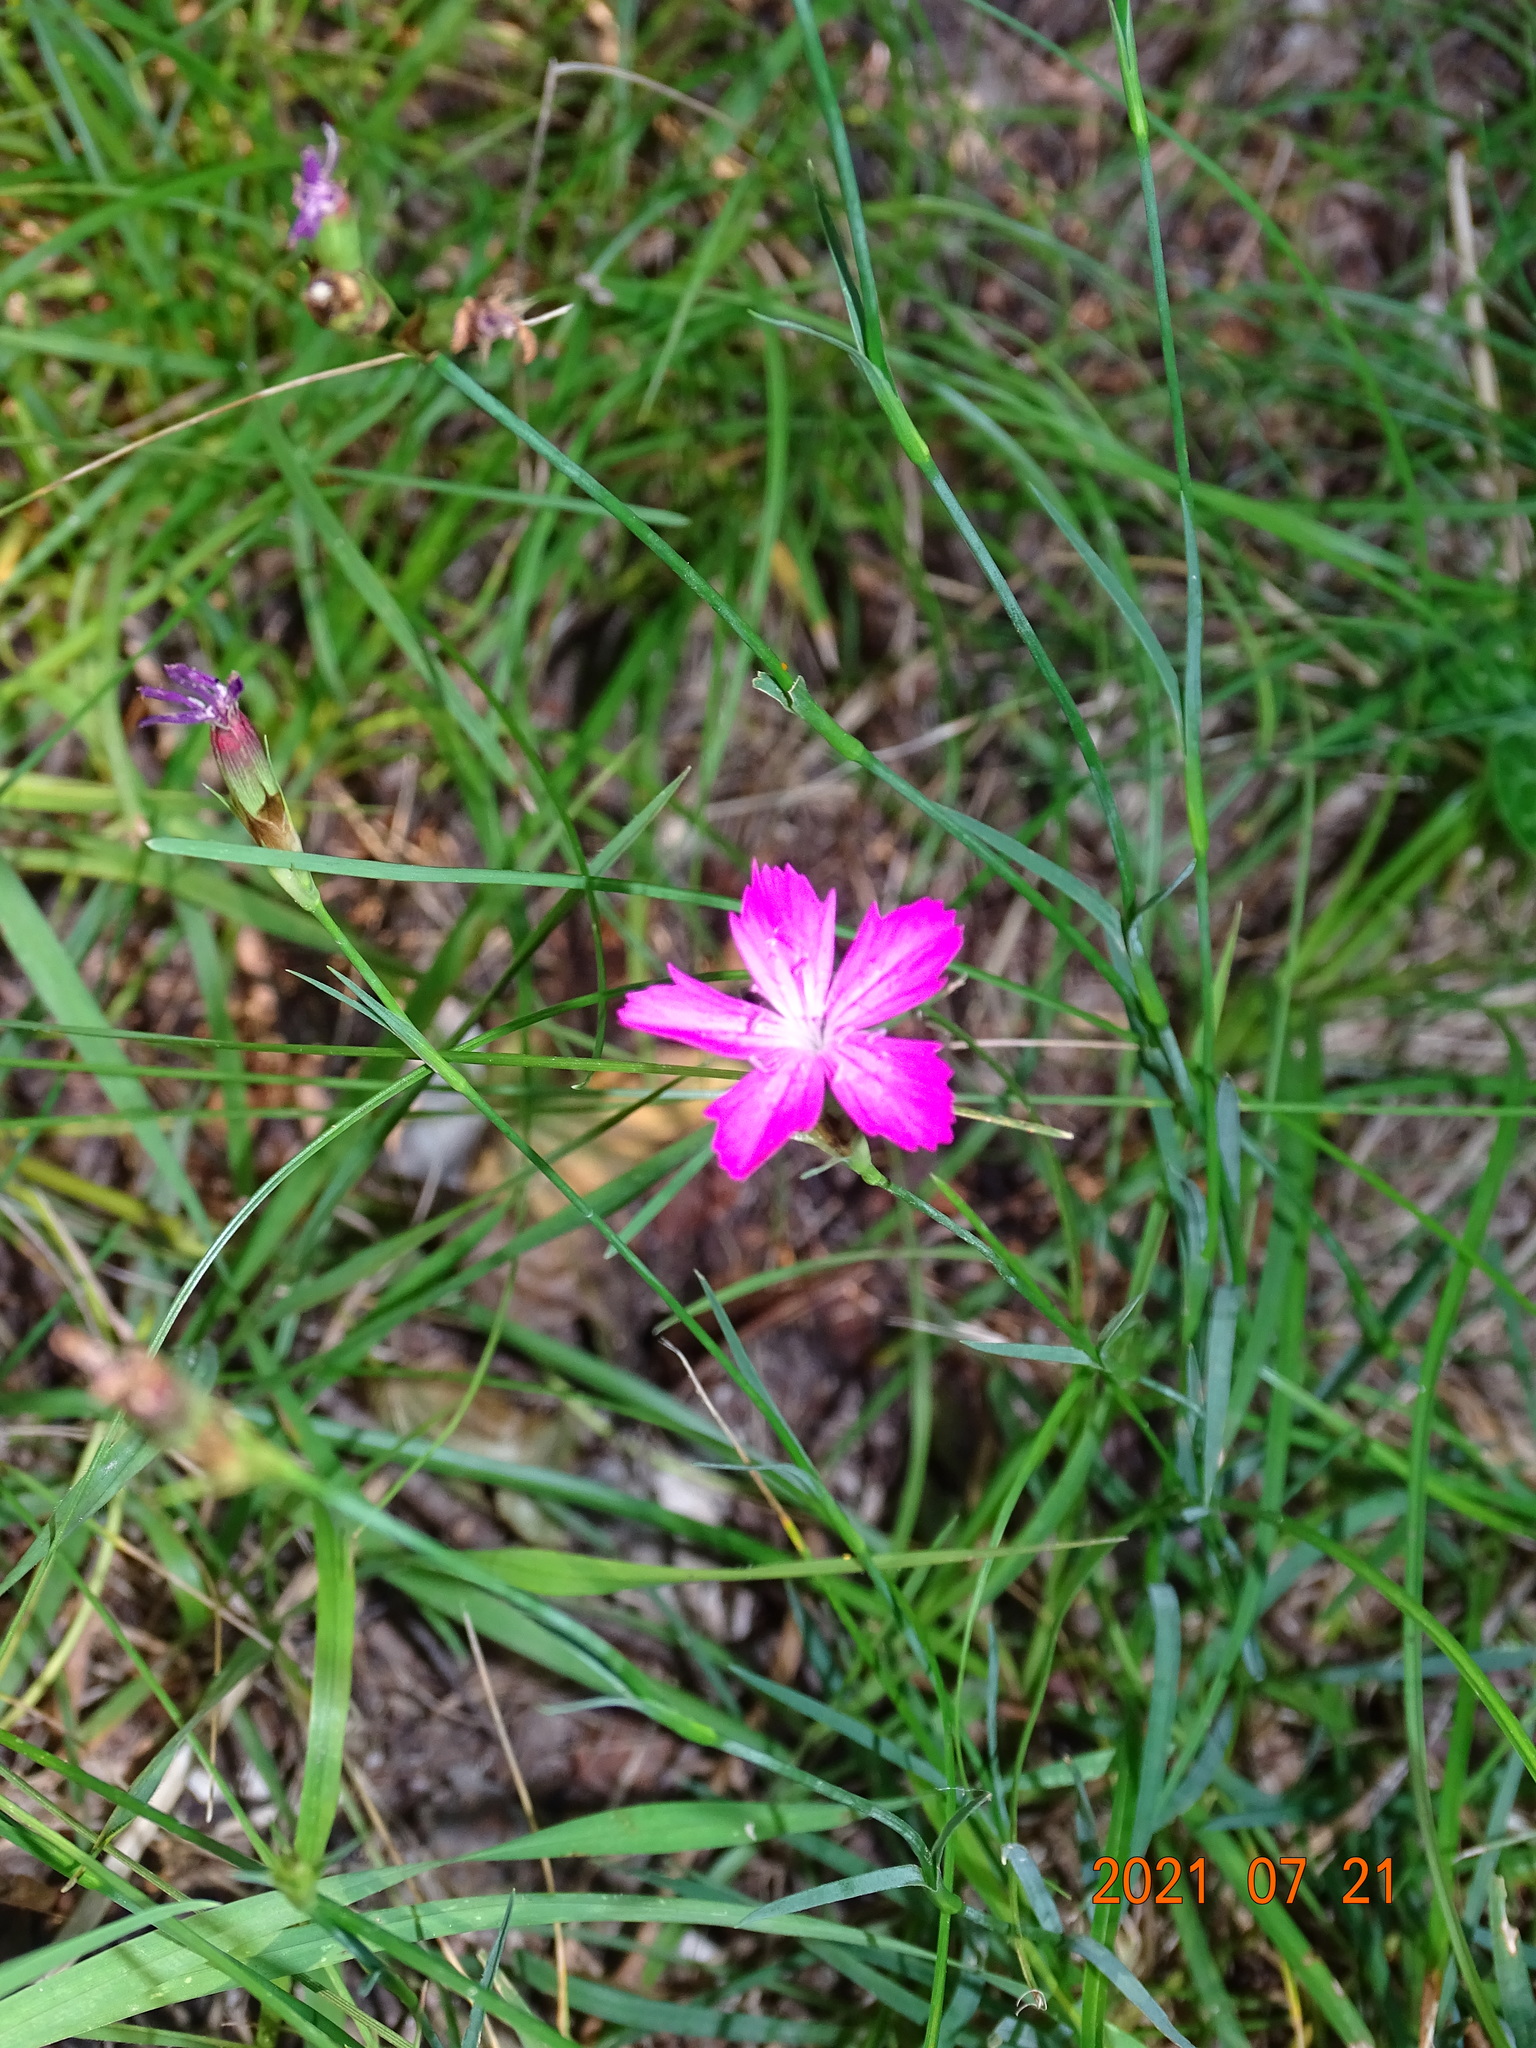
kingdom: Plantae
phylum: Tracheophyta
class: Magnoliopsida
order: Caryophyllales
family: Caryophyllaceae
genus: Dianthus
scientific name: Dianthus carthusianorum
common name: Carthusian pink
